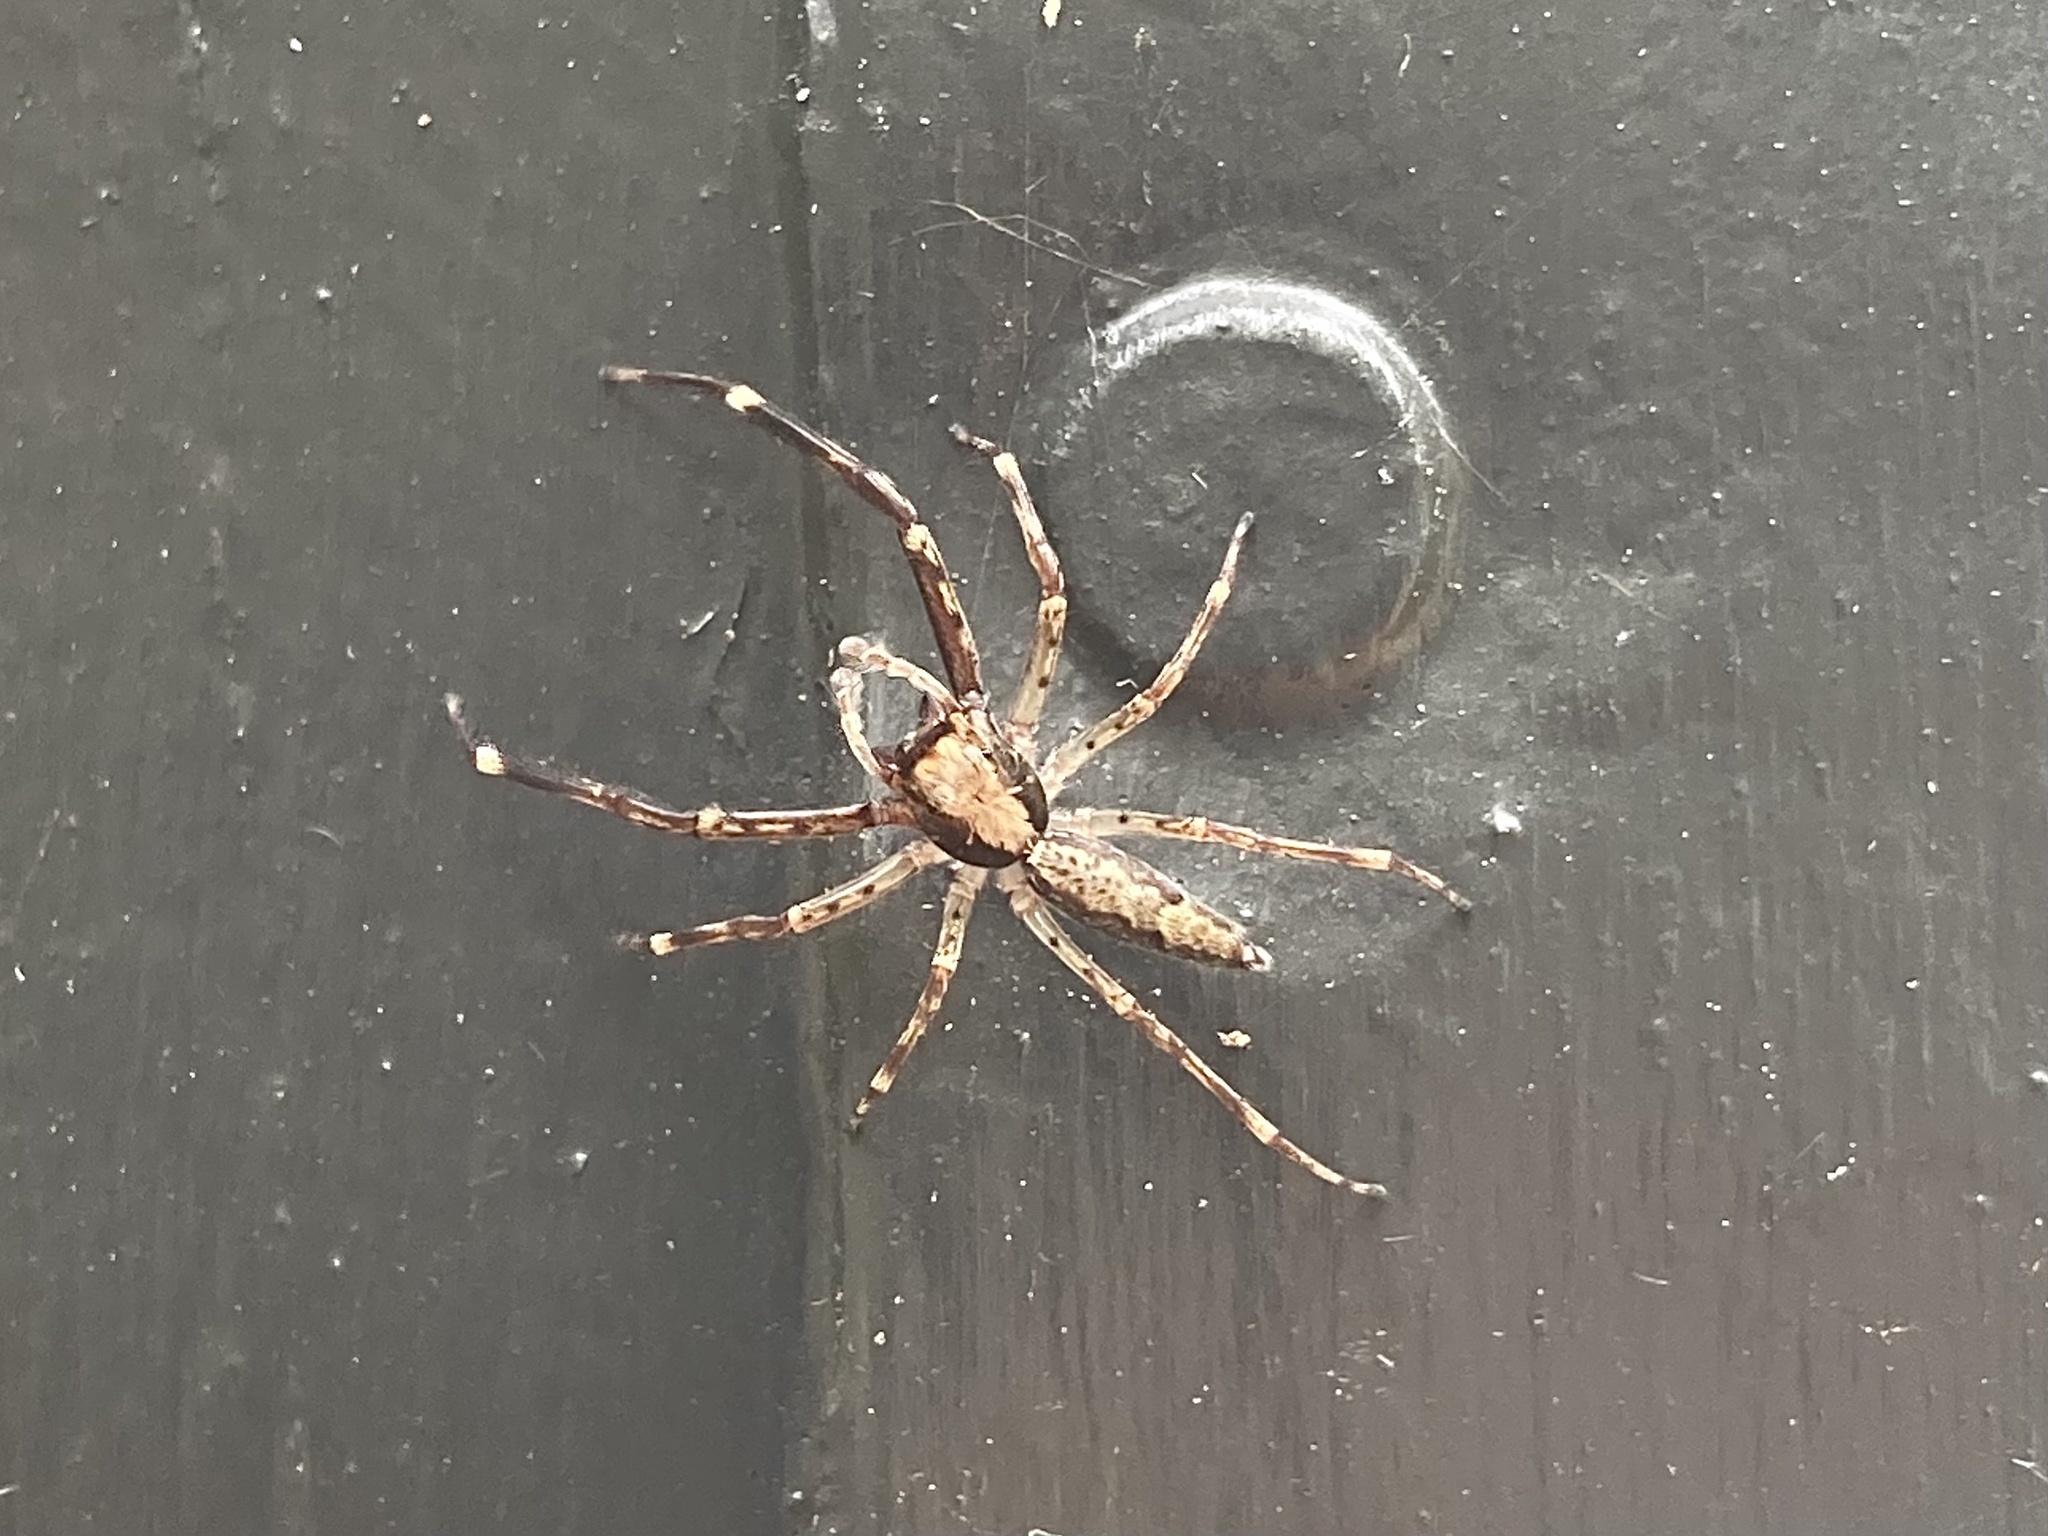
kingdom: Animalia
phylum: Arthropoda
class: Arachnida
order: Araneae
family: Salticidae
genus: Helpis
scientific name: Helpis minitabunda
